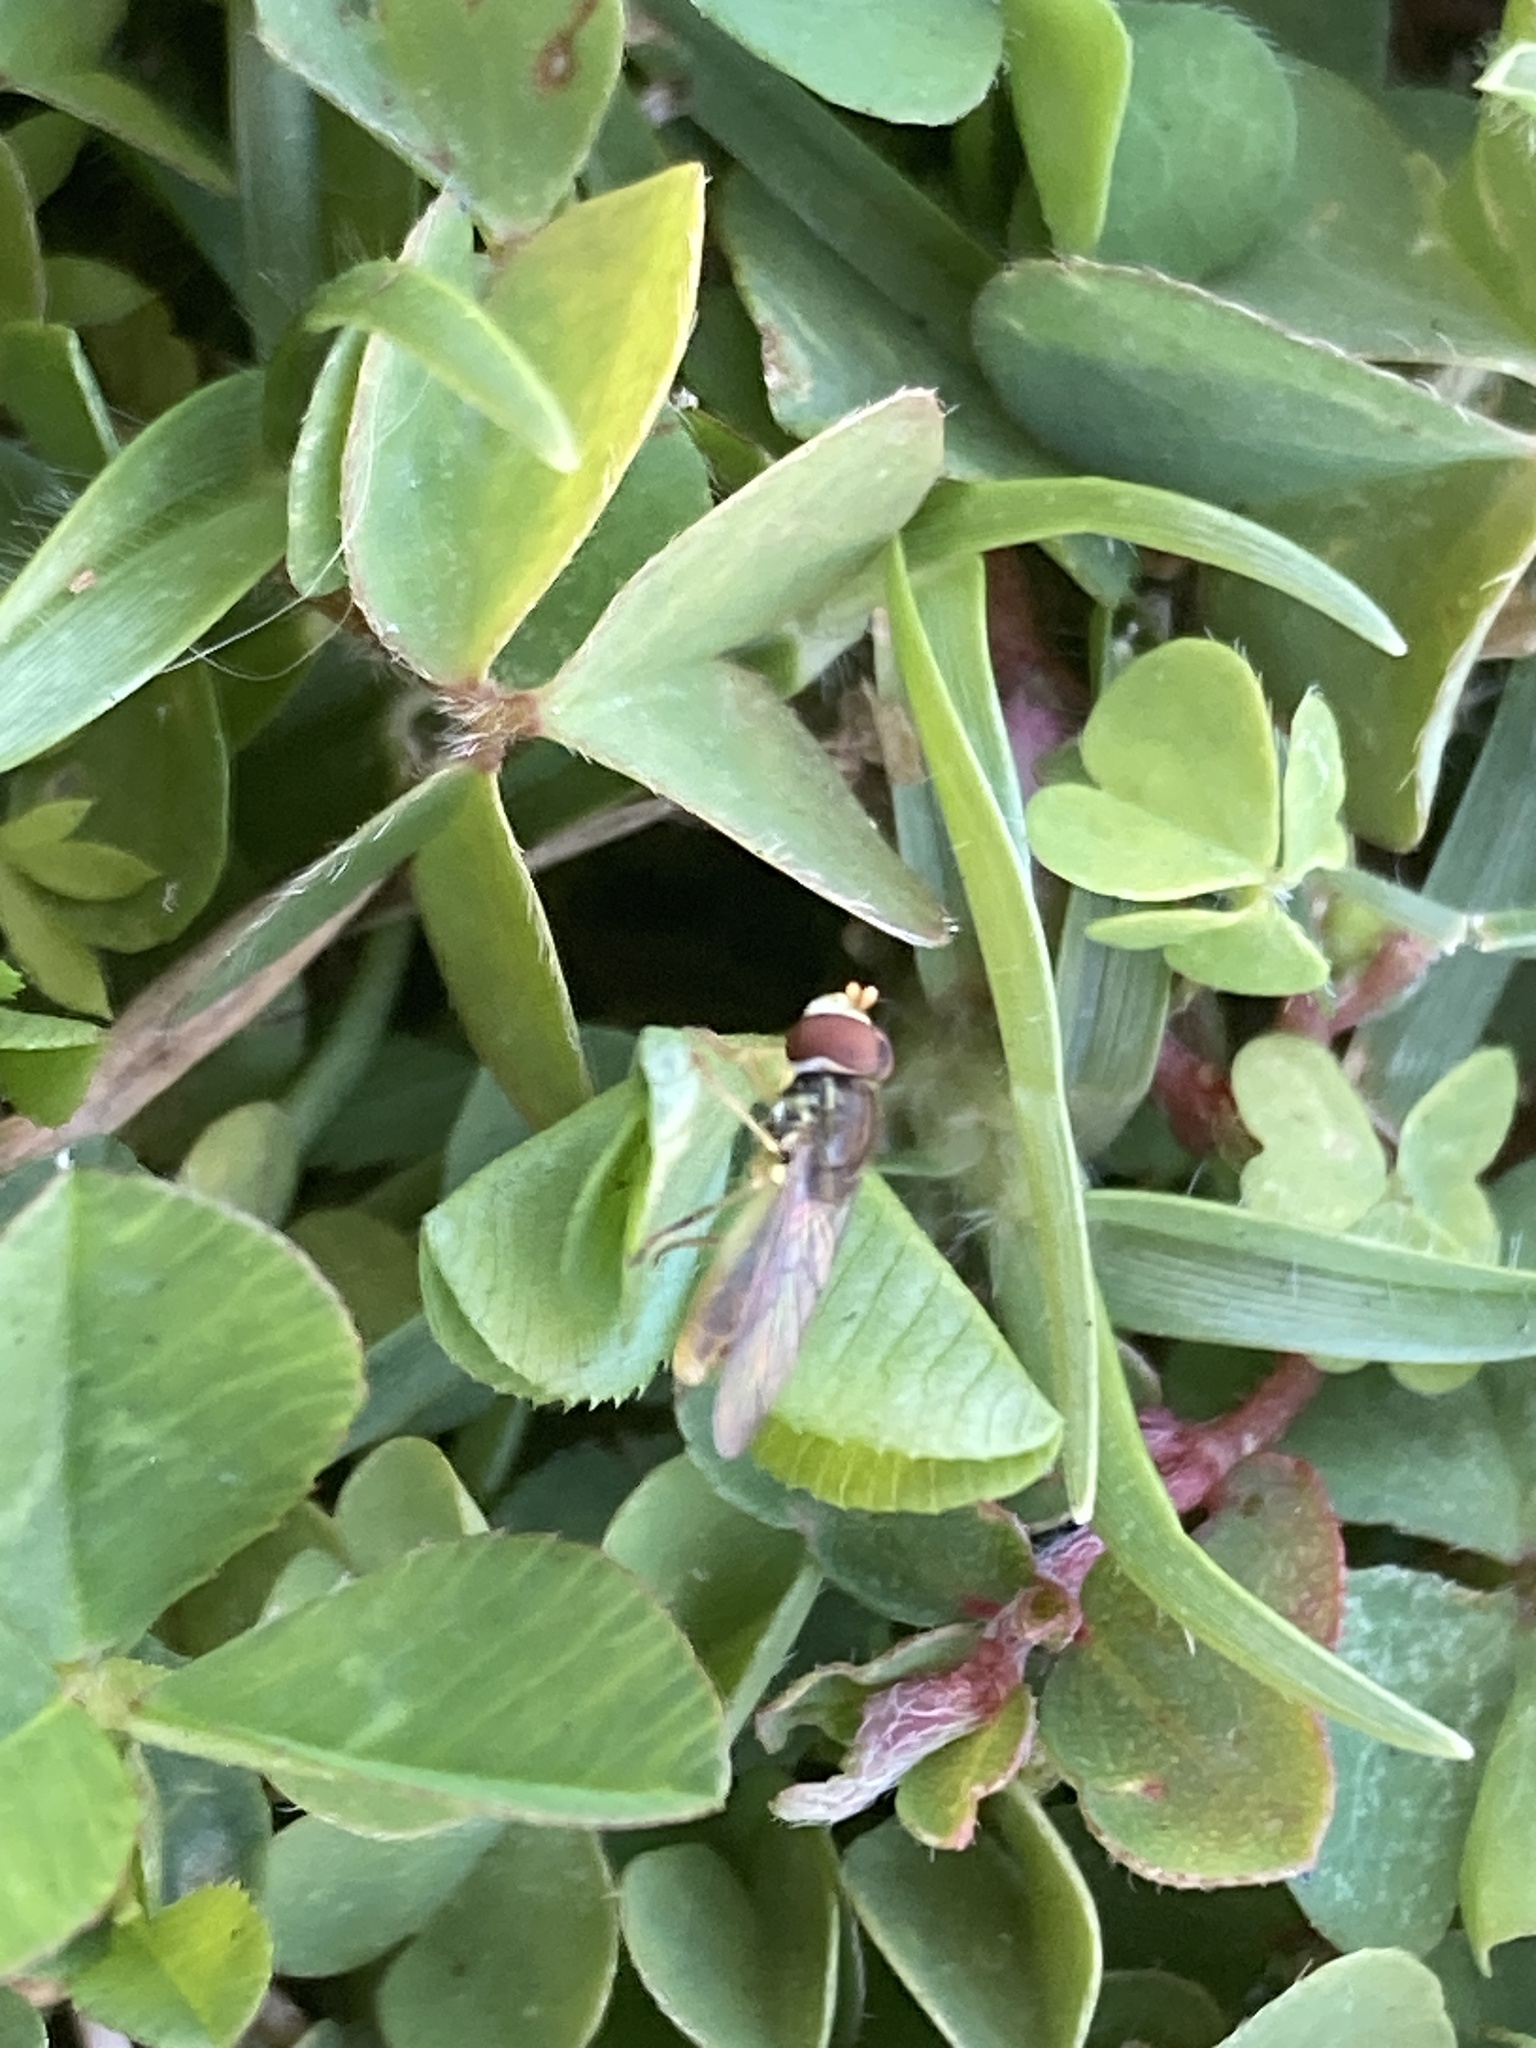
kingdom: Animalia
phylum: Arthropoda
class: Insecta
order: Diptera
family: Syrphidae
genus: Toxomerus
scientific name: Toxomerus
